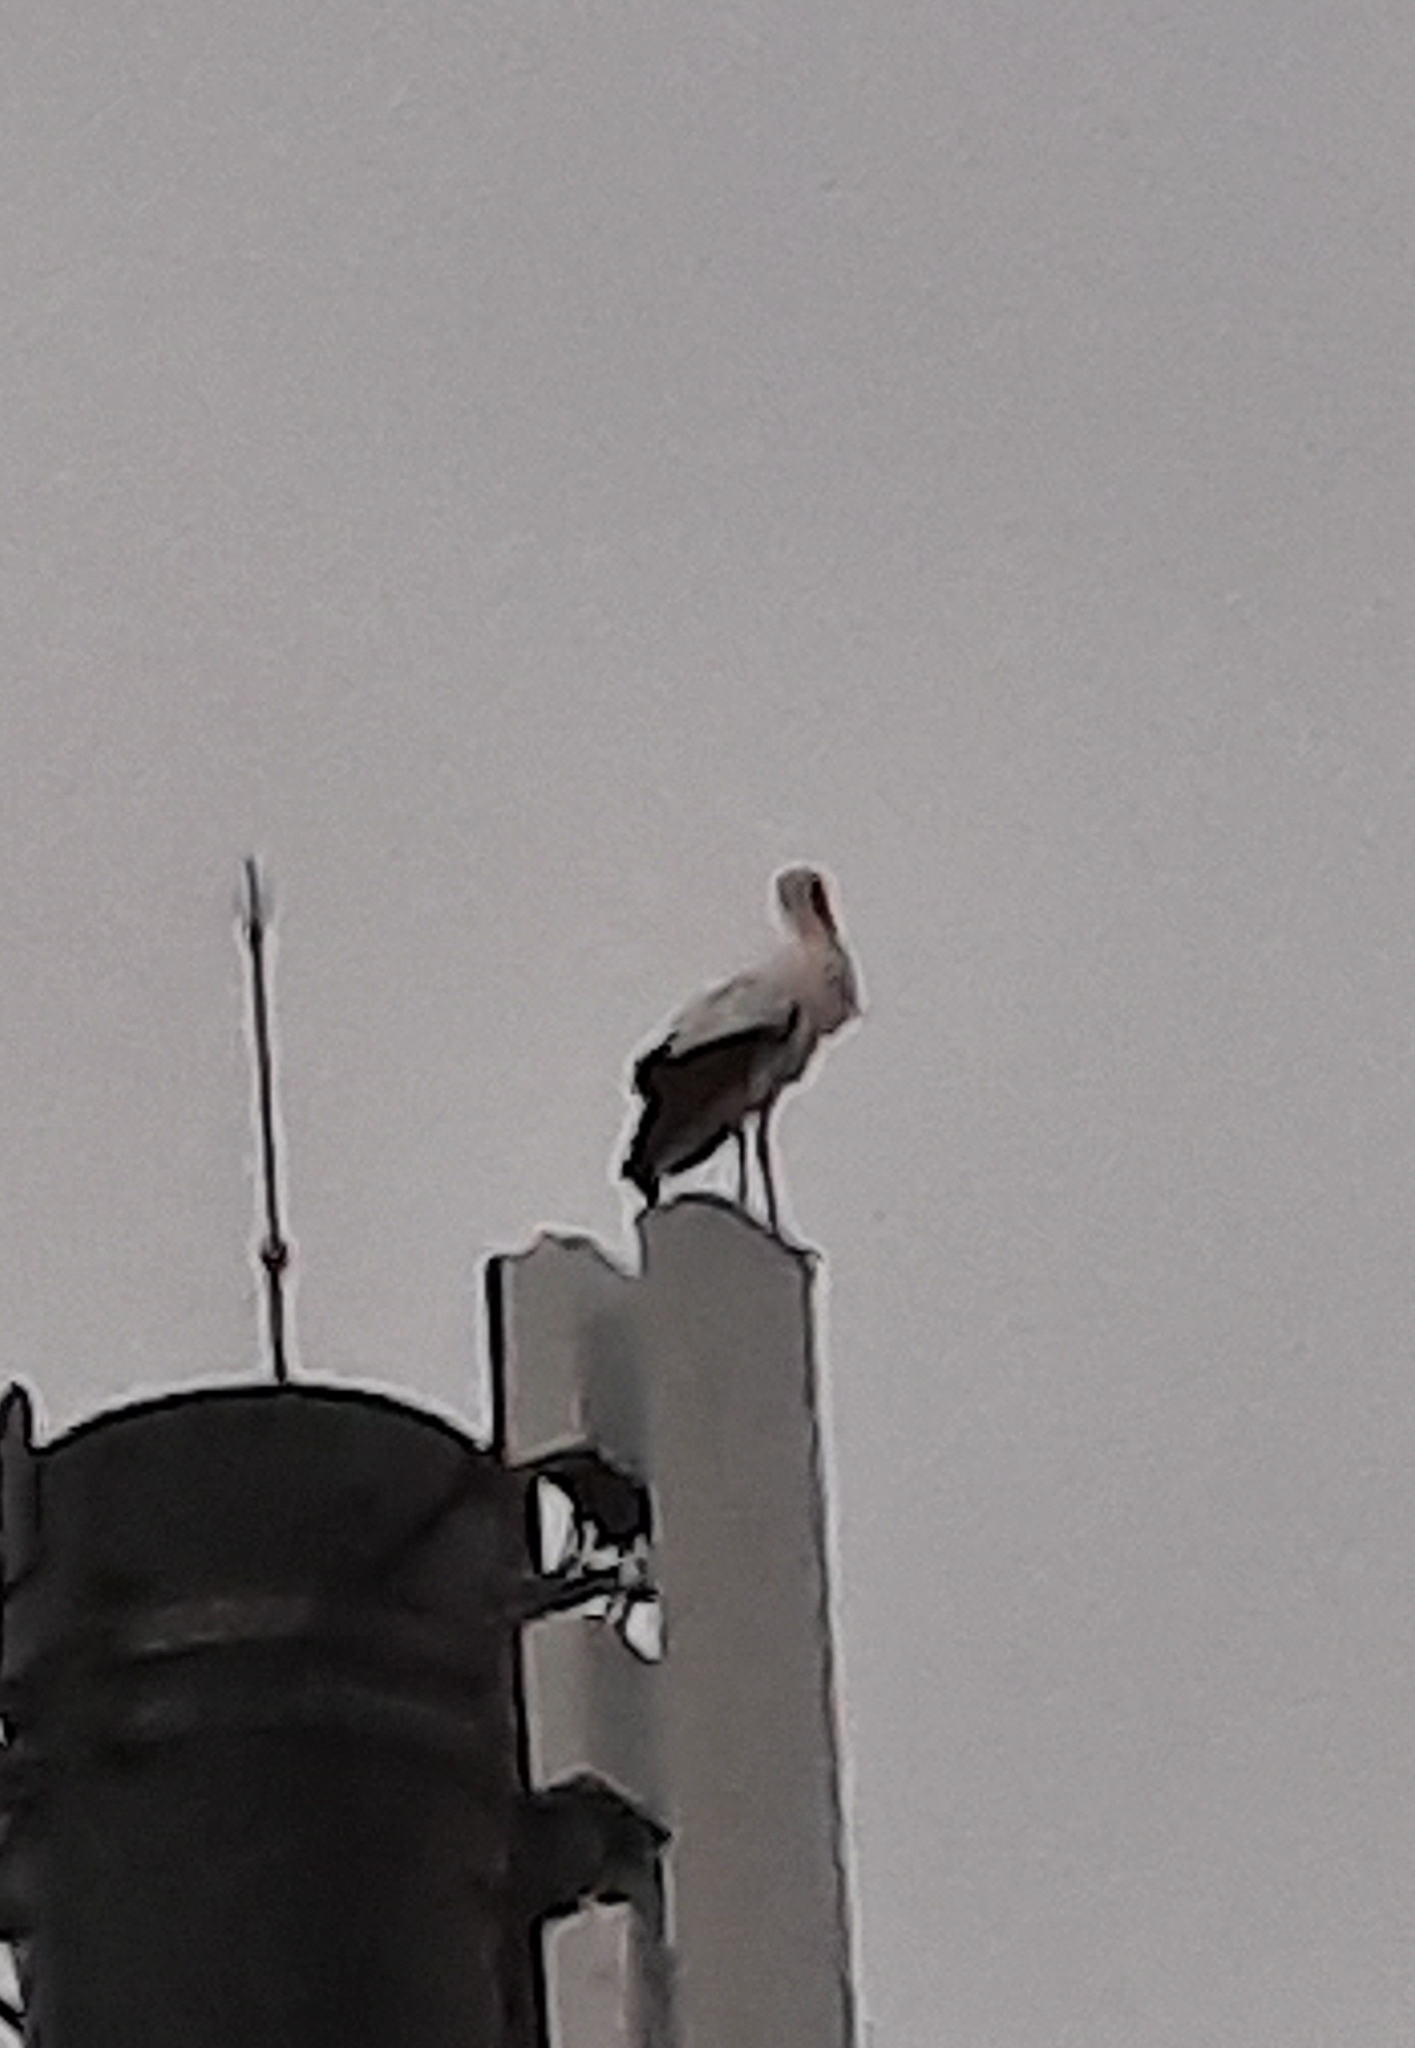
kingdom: Animalia
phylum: Chordata
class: Aves
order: Ciconiiformes
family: Ciconiidae
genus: Ciconia
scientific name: Ciconia ciconia
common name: White stork
